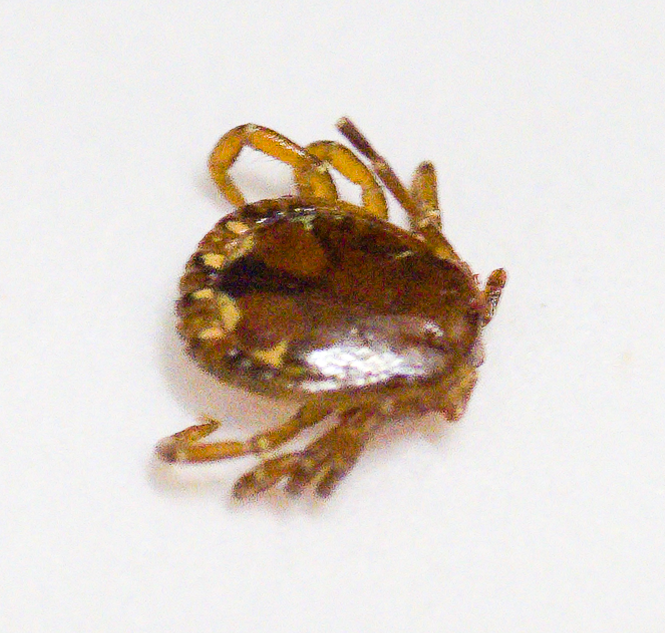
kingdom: Animalia
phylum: Arthropoda
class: Arachnida
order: Ixodida
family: Ixodidae
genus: Amblyomma
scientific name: Amblyomma americanum
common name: Lone star tick
